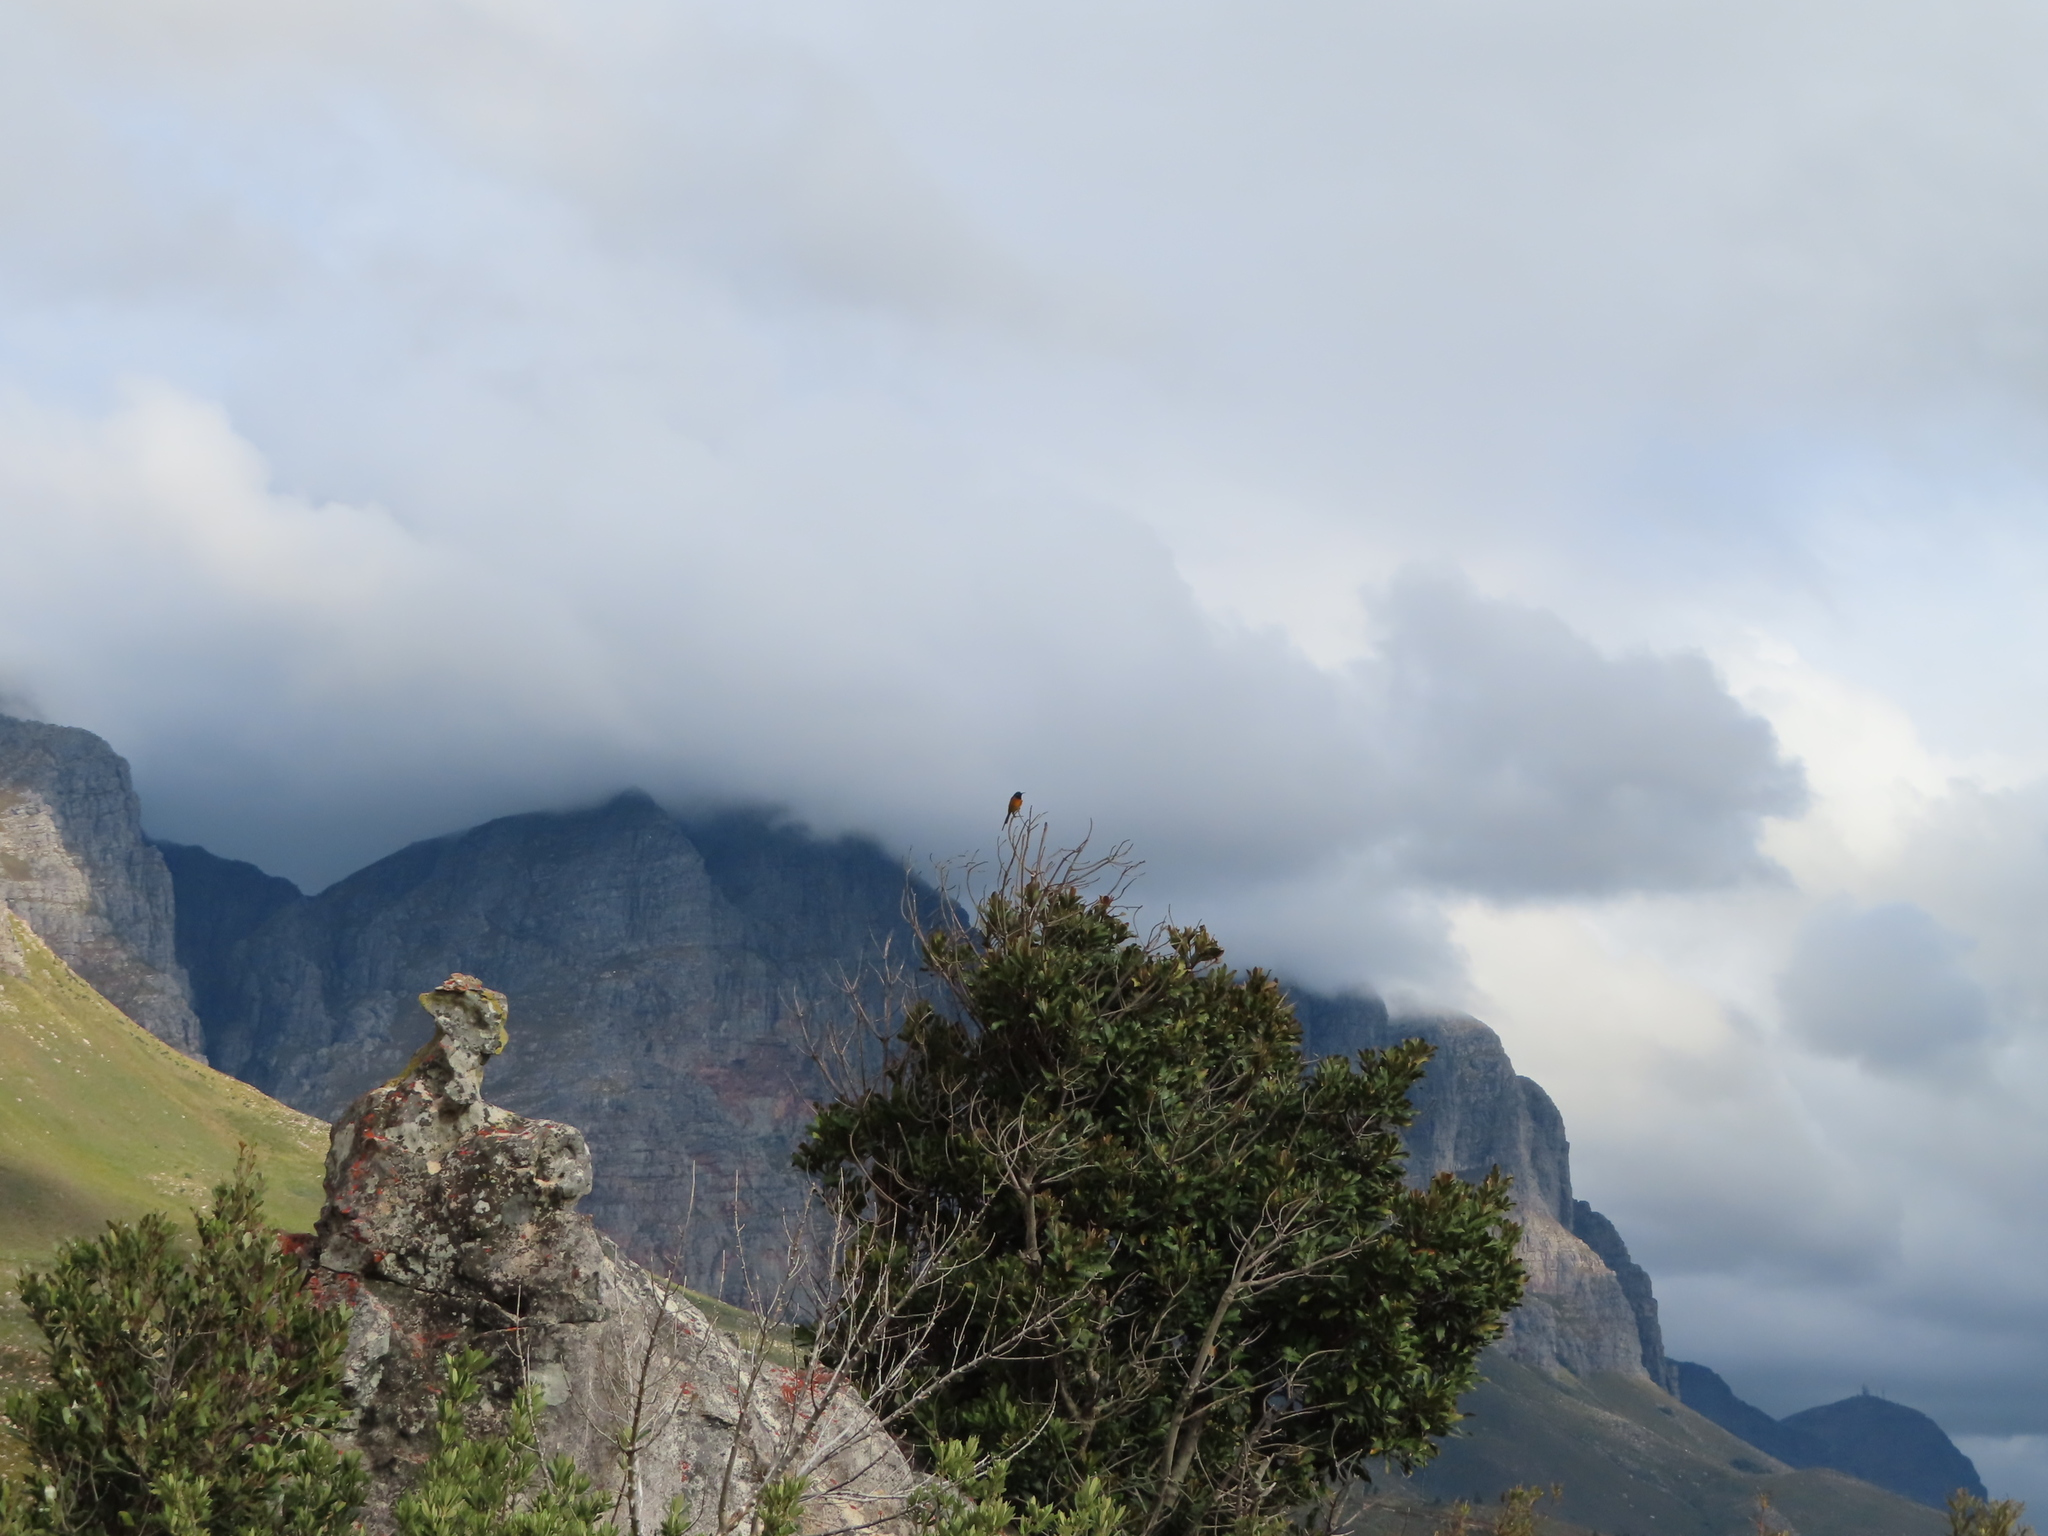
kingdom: Animalia
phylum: Chordata
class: Aves
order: Passeriformes
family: Nectariniidae
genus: Anthobaphes
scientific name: Anthobaphes violacea
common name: Orange-breasted sunbird
